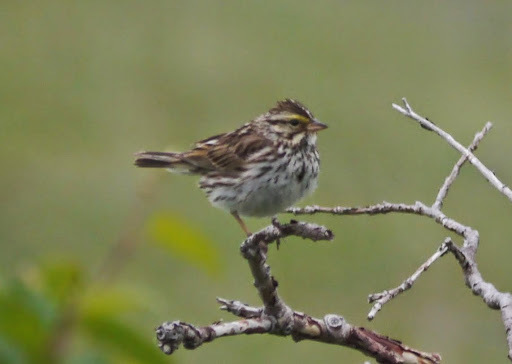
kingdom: Animalia
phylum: Chordata
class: Aves
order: Passeriformes
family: Passerellidae
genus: Passerculus
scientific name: Passerculus sandwichensis
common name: Savannah sparrow
